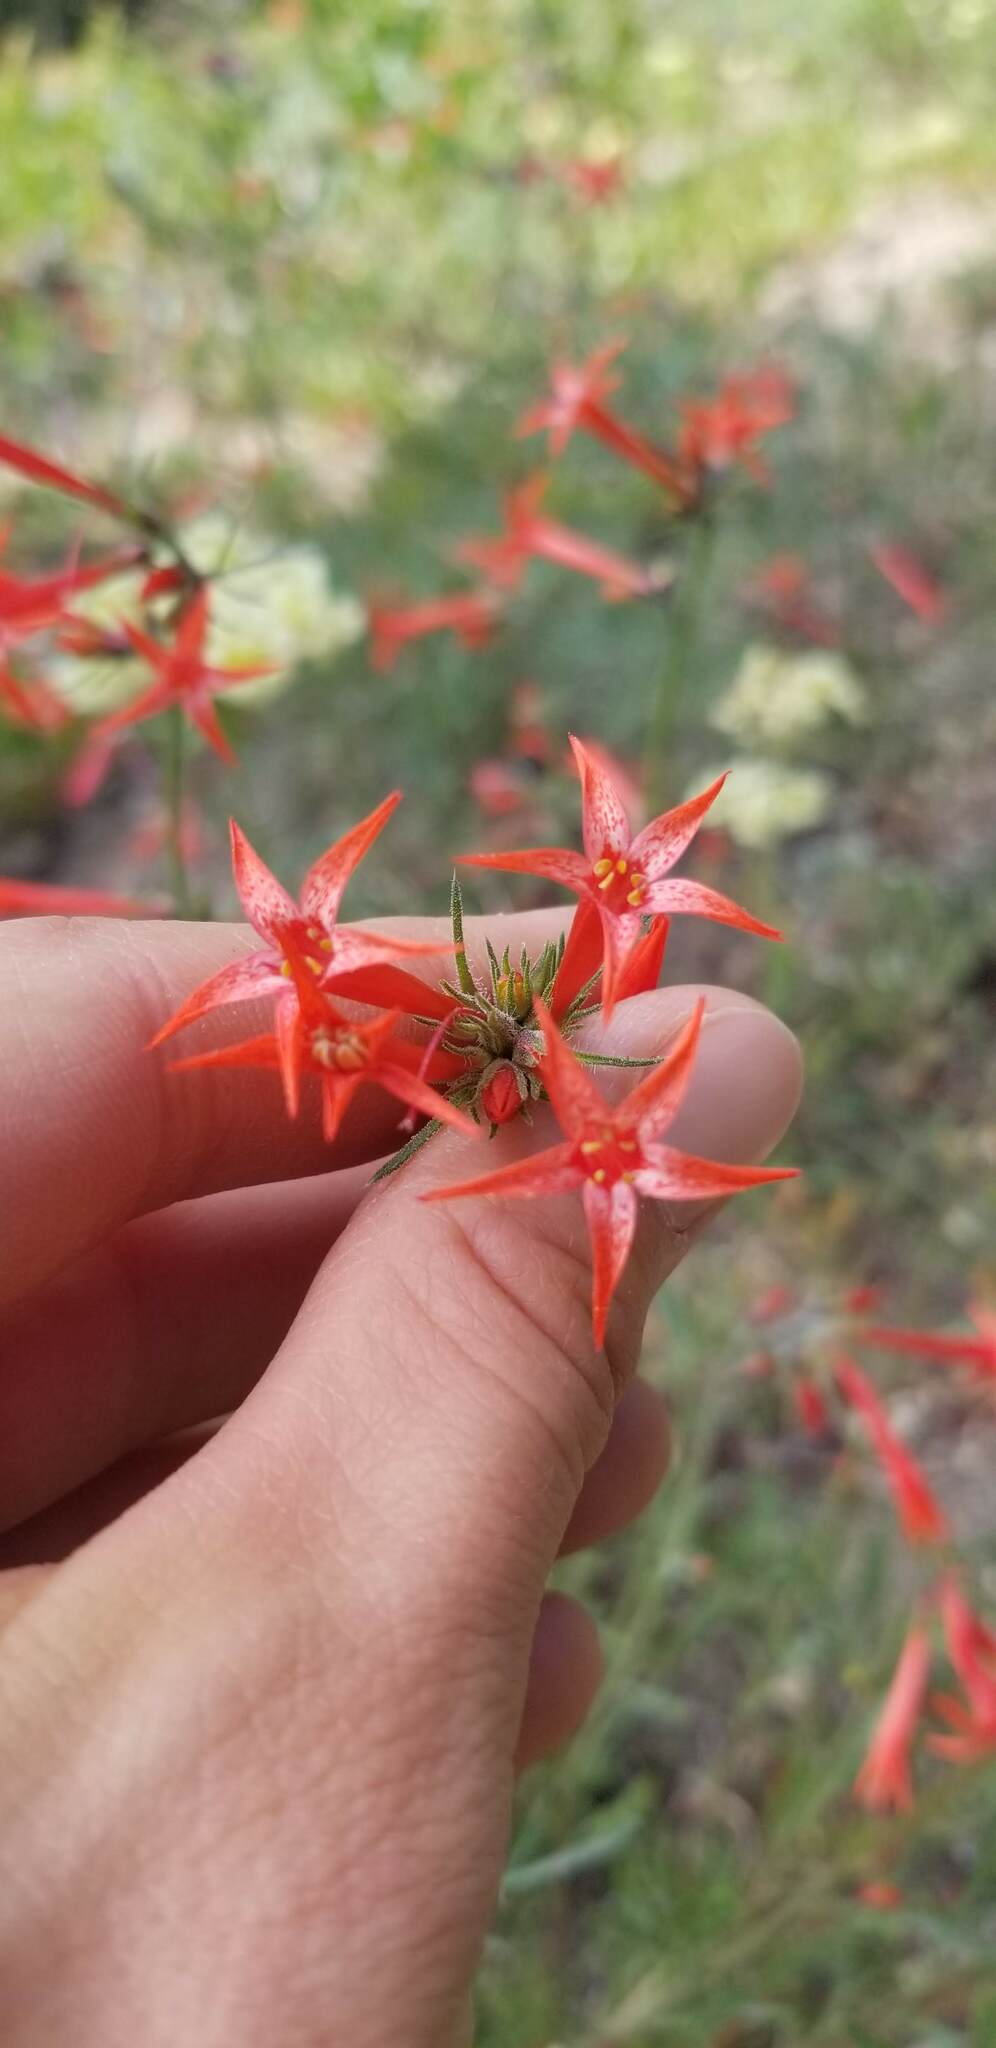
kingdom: Plantae
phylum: Tracheophyta
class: Magnoliopsida
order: Ericales
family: Polemoniaceae
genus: Ipomopsis
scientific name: Ipomopsis aggregata
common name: Scarlet gilia
